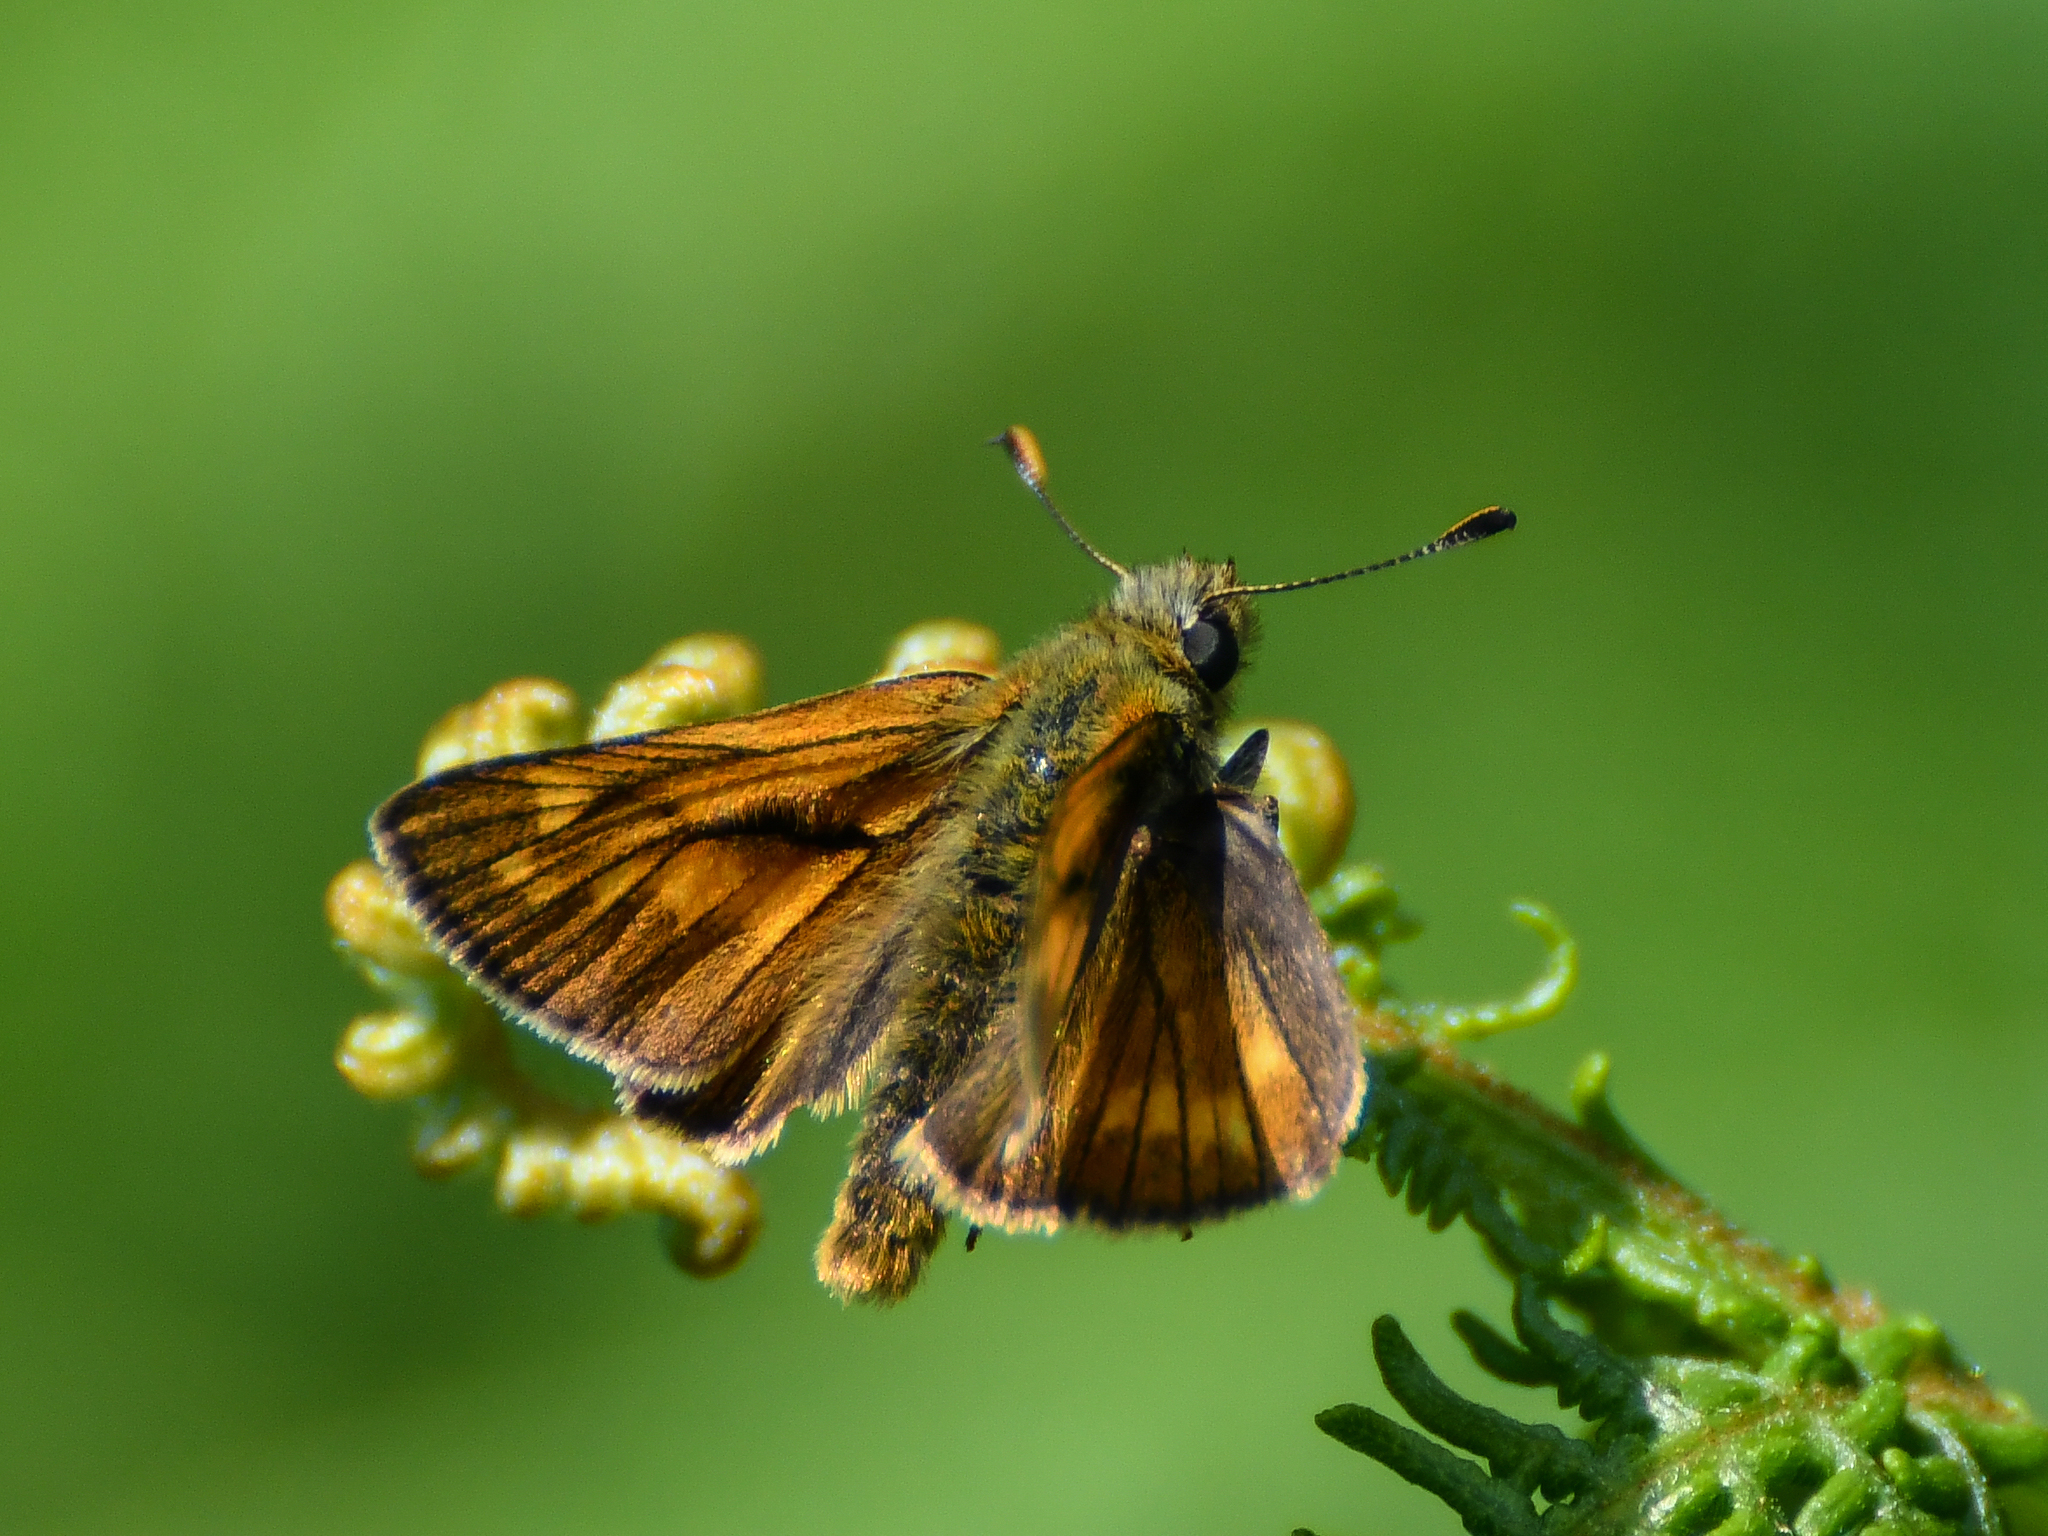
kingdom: Animalia
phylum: Arthropoda
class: Insecta
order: Lepidoptera
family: Hesperiidae
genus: Ochlodes
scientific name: Ochlodes venata
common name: Large skipper
